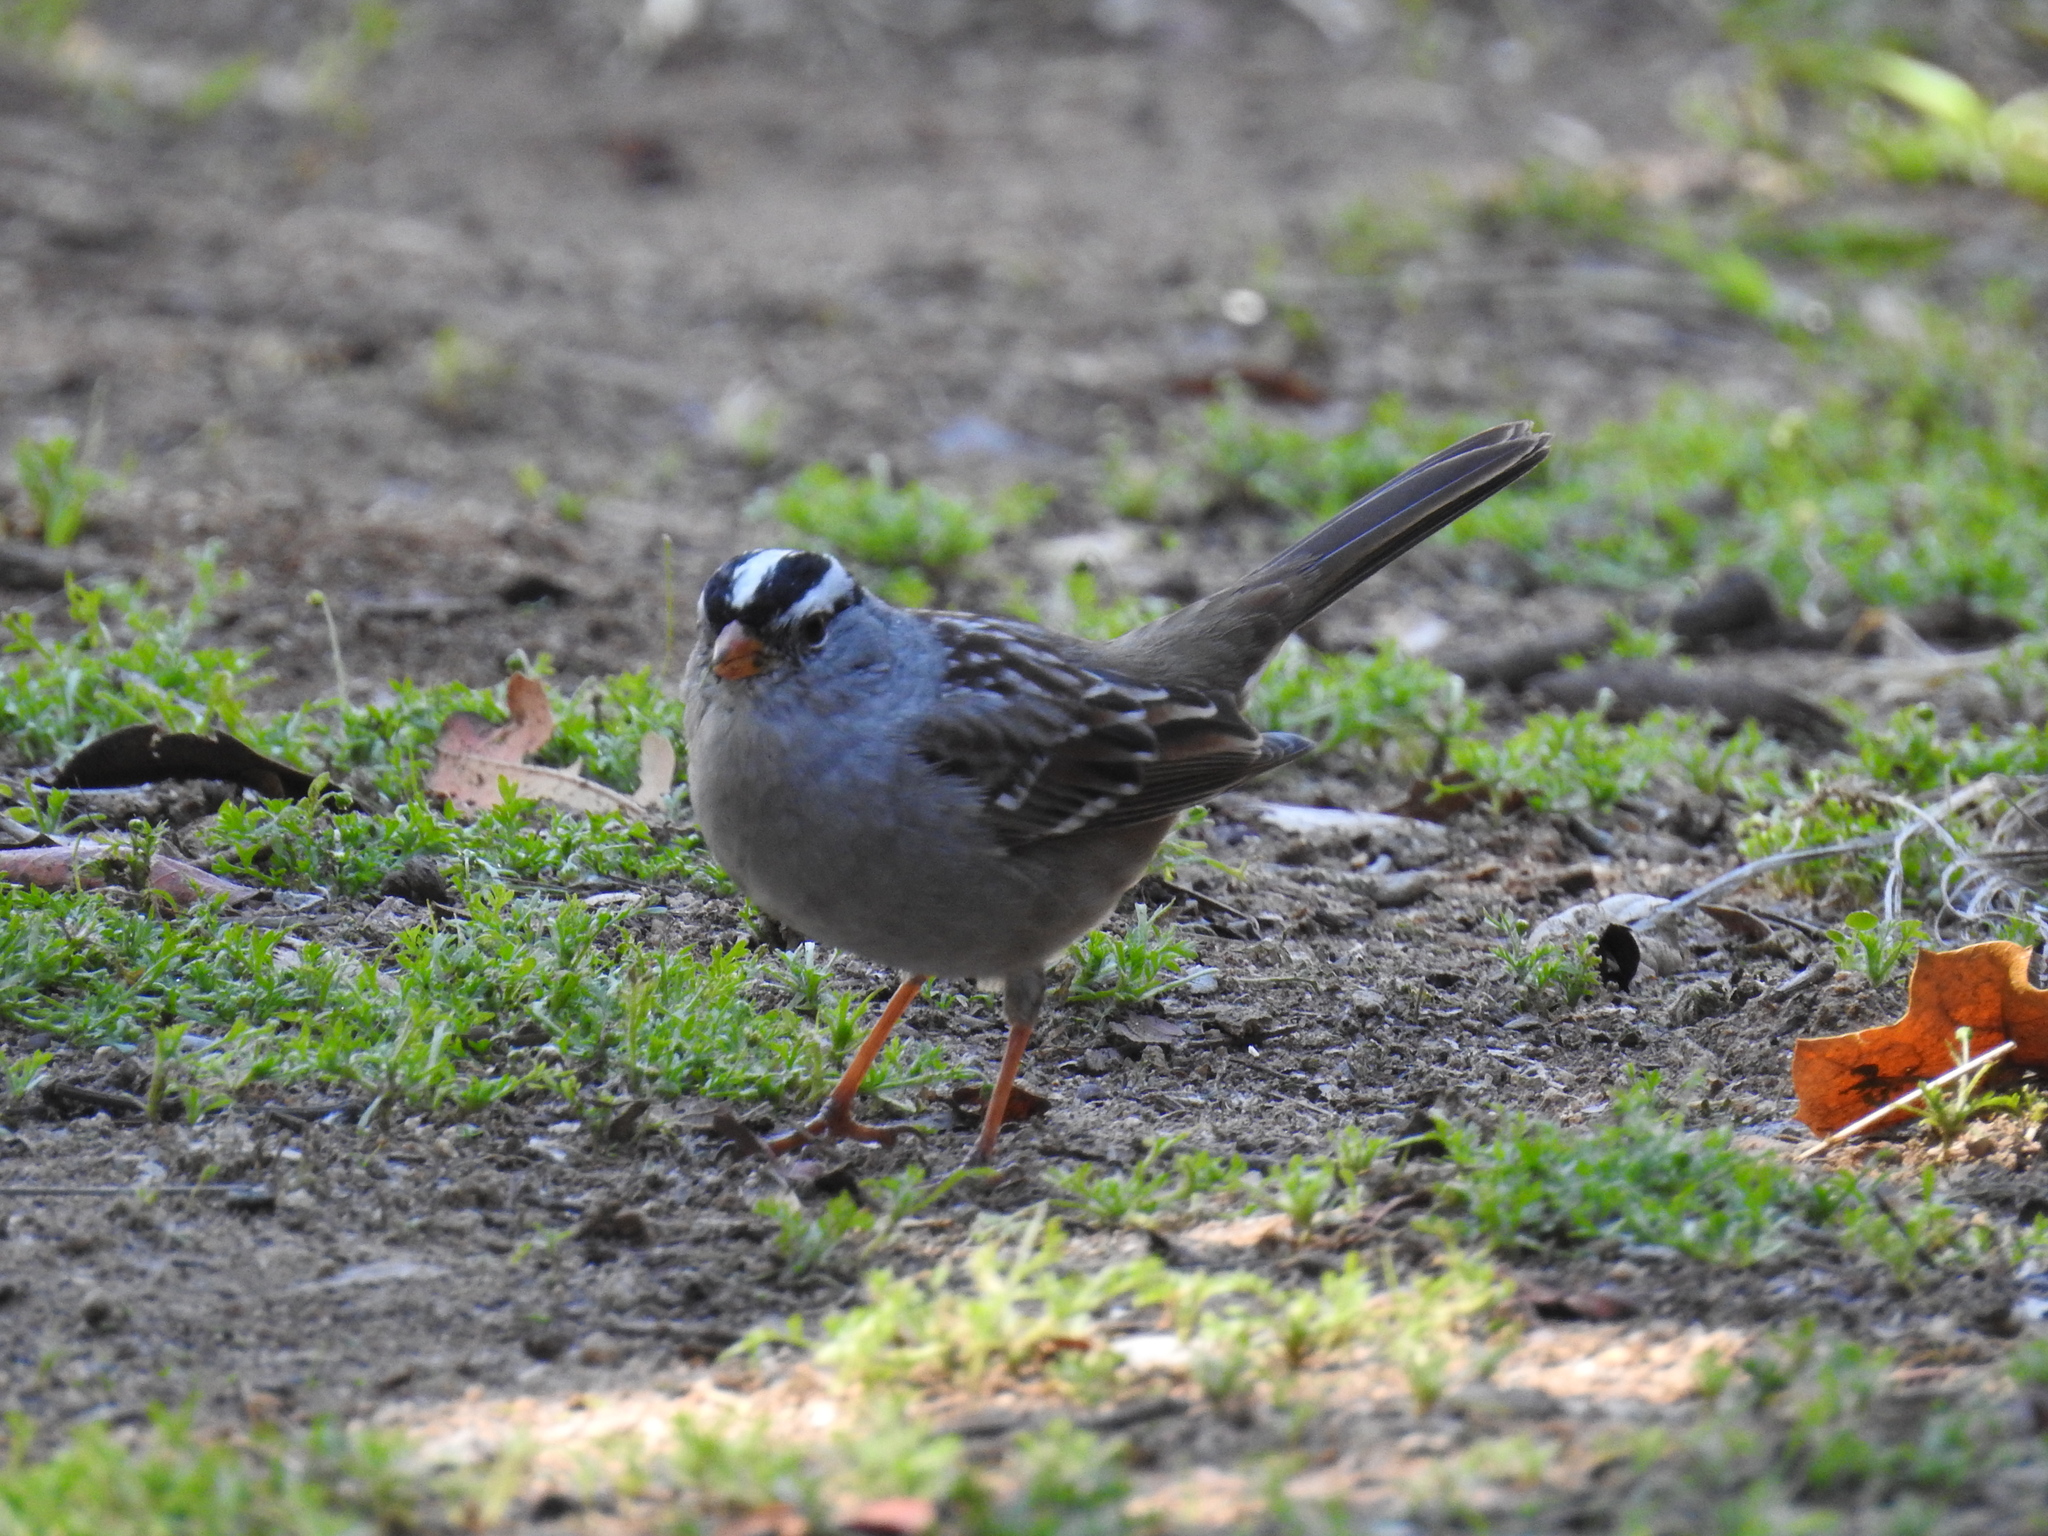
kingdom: Animalia
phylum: Chordata
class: Aves
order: Passeriformes
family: Passerellidae
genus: Zonotrichia
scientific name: Zonotrichia leucophrys
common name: White-crowned sparrow
